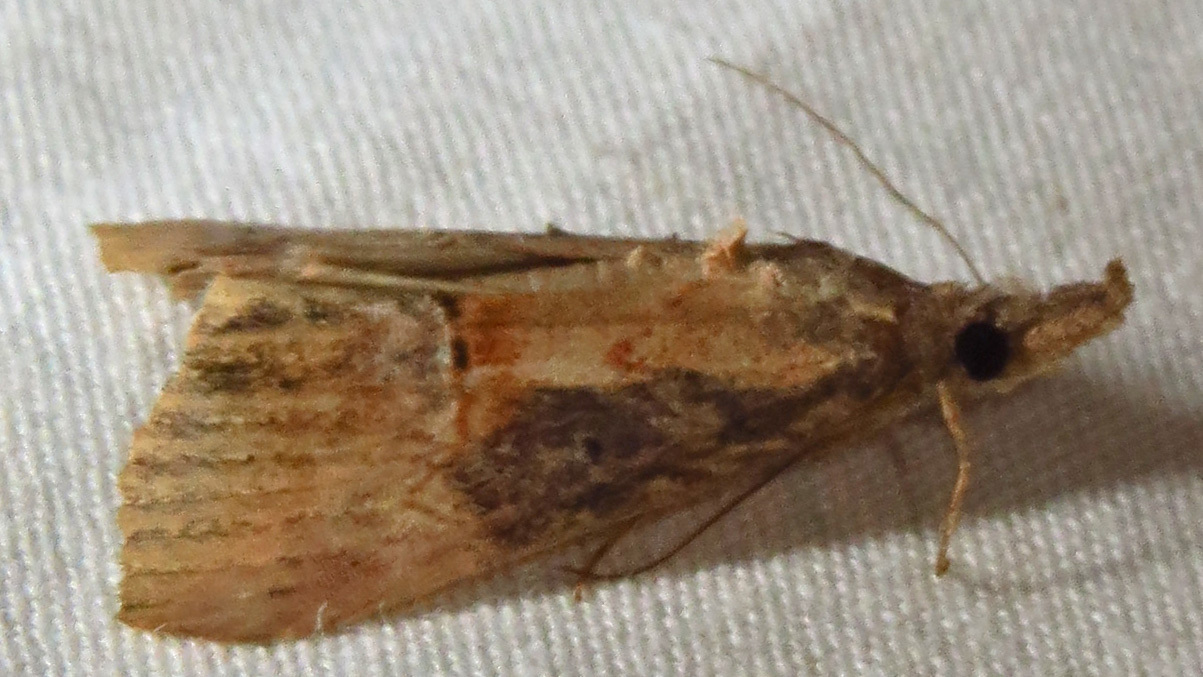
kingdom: Animalia
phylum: Arthropoda
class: Insecta
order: Lepidoptera
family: Erebidae
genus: Hypena
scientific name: Hypena scabra
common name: Green cloverworm
